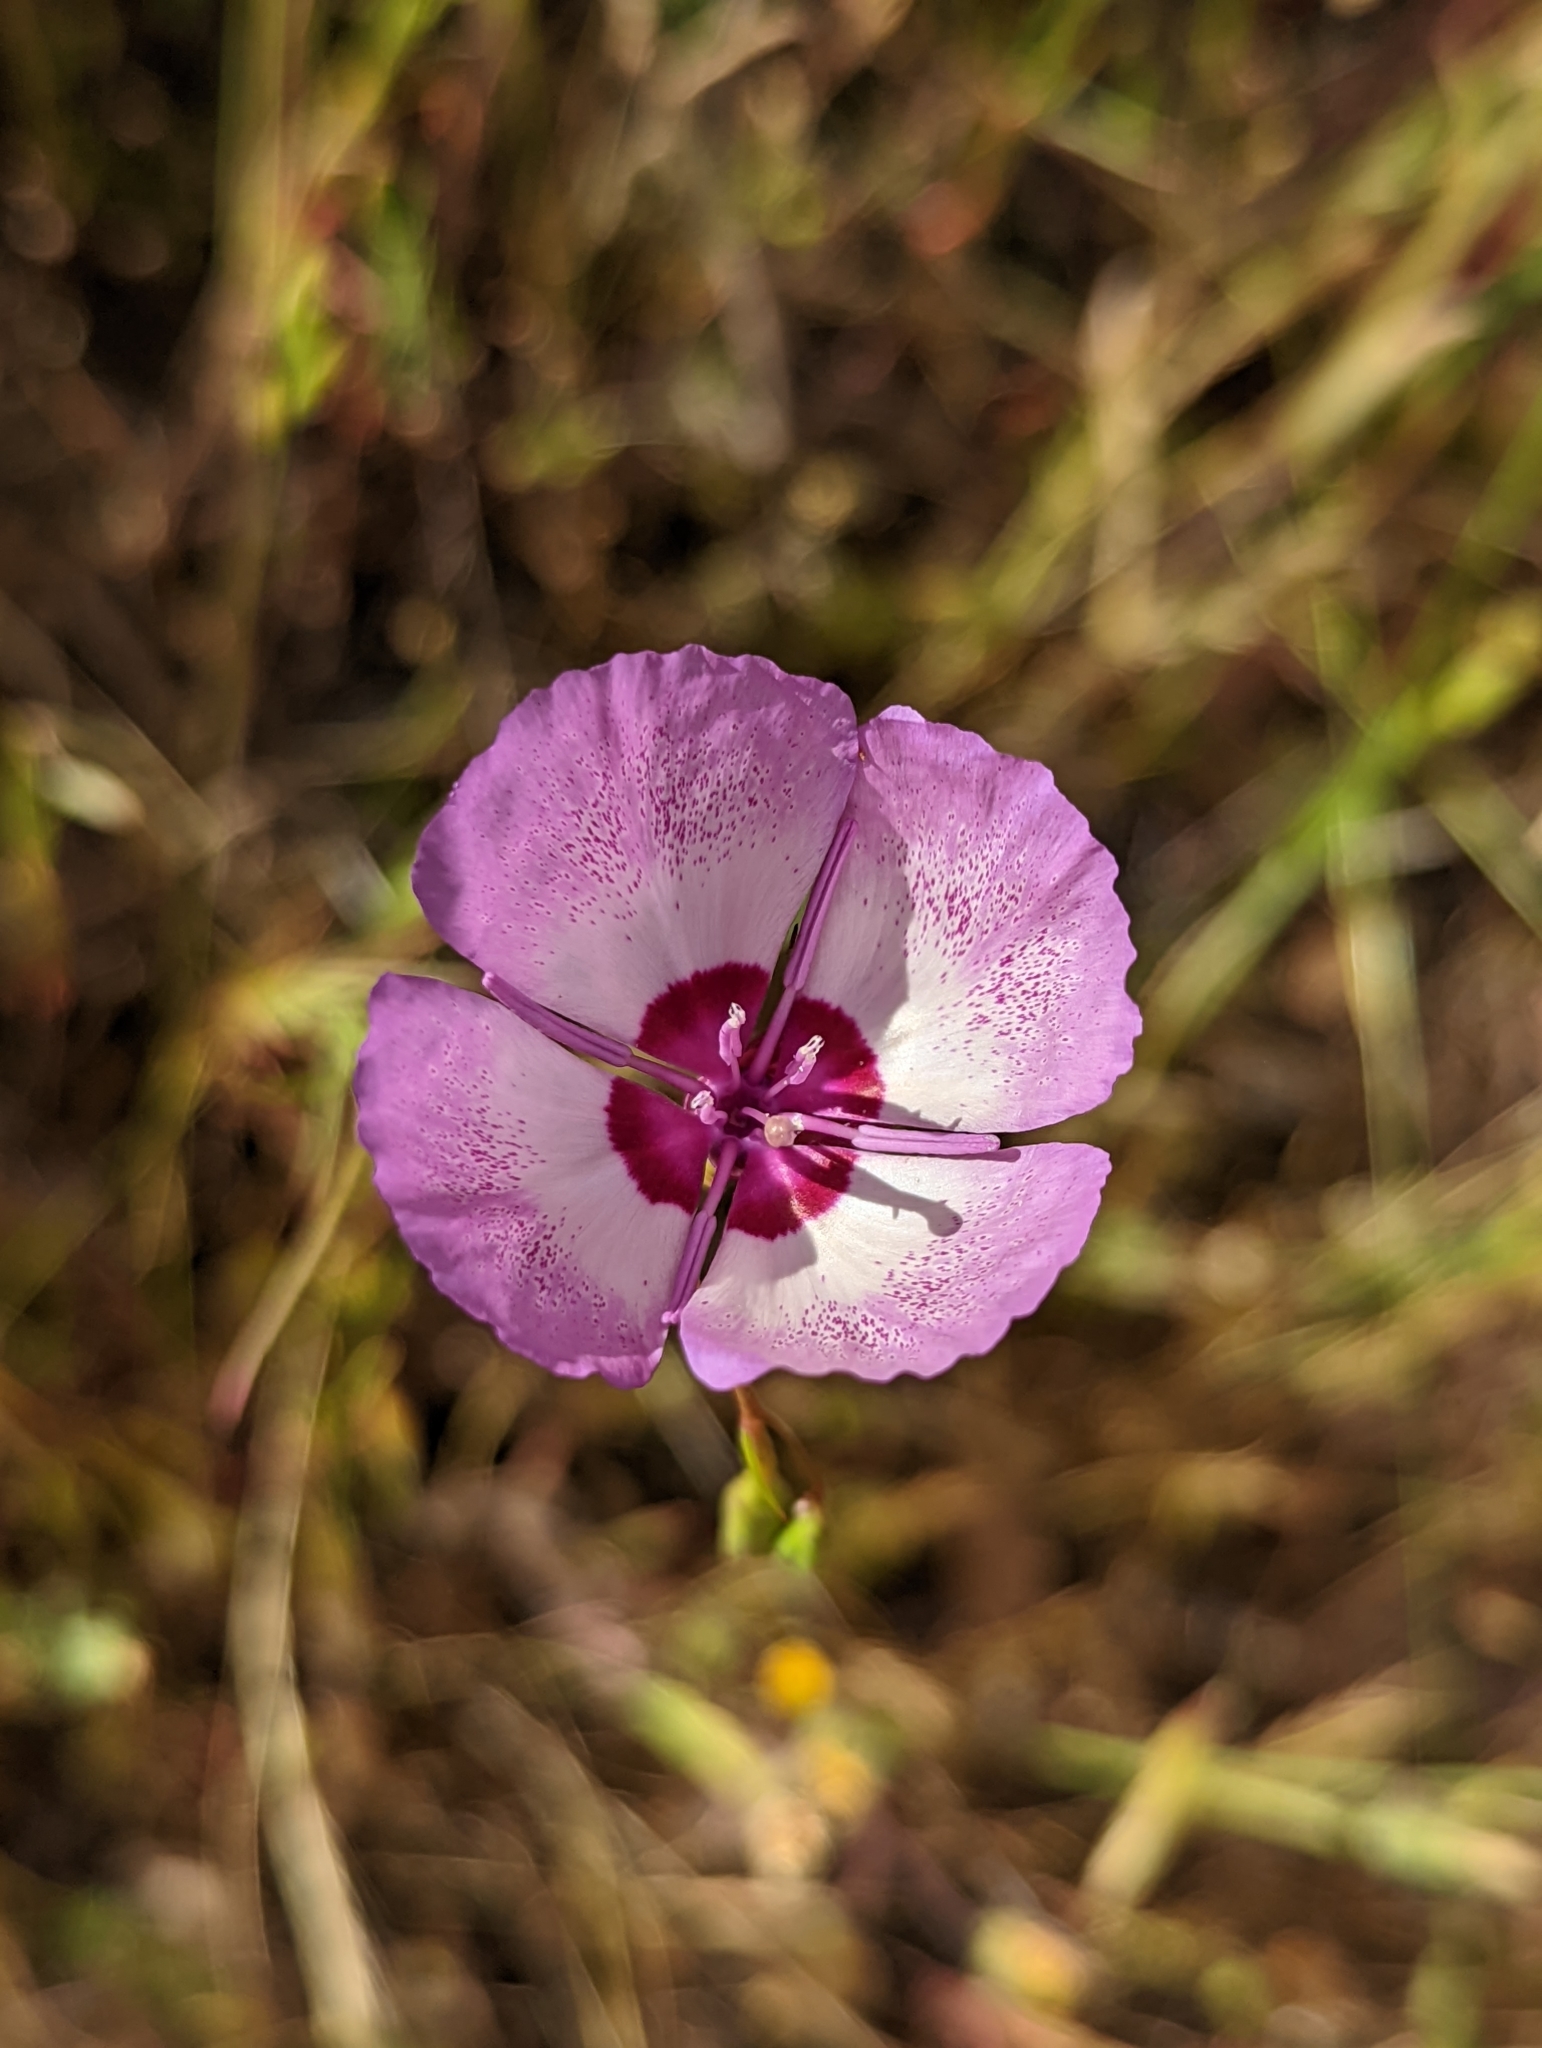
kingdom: Plantae
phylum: Tracheophyta
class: Magnoliopsida
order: Myrtales
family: Onagraceae
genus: Clarkia
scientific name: Clarkia cylindrica
